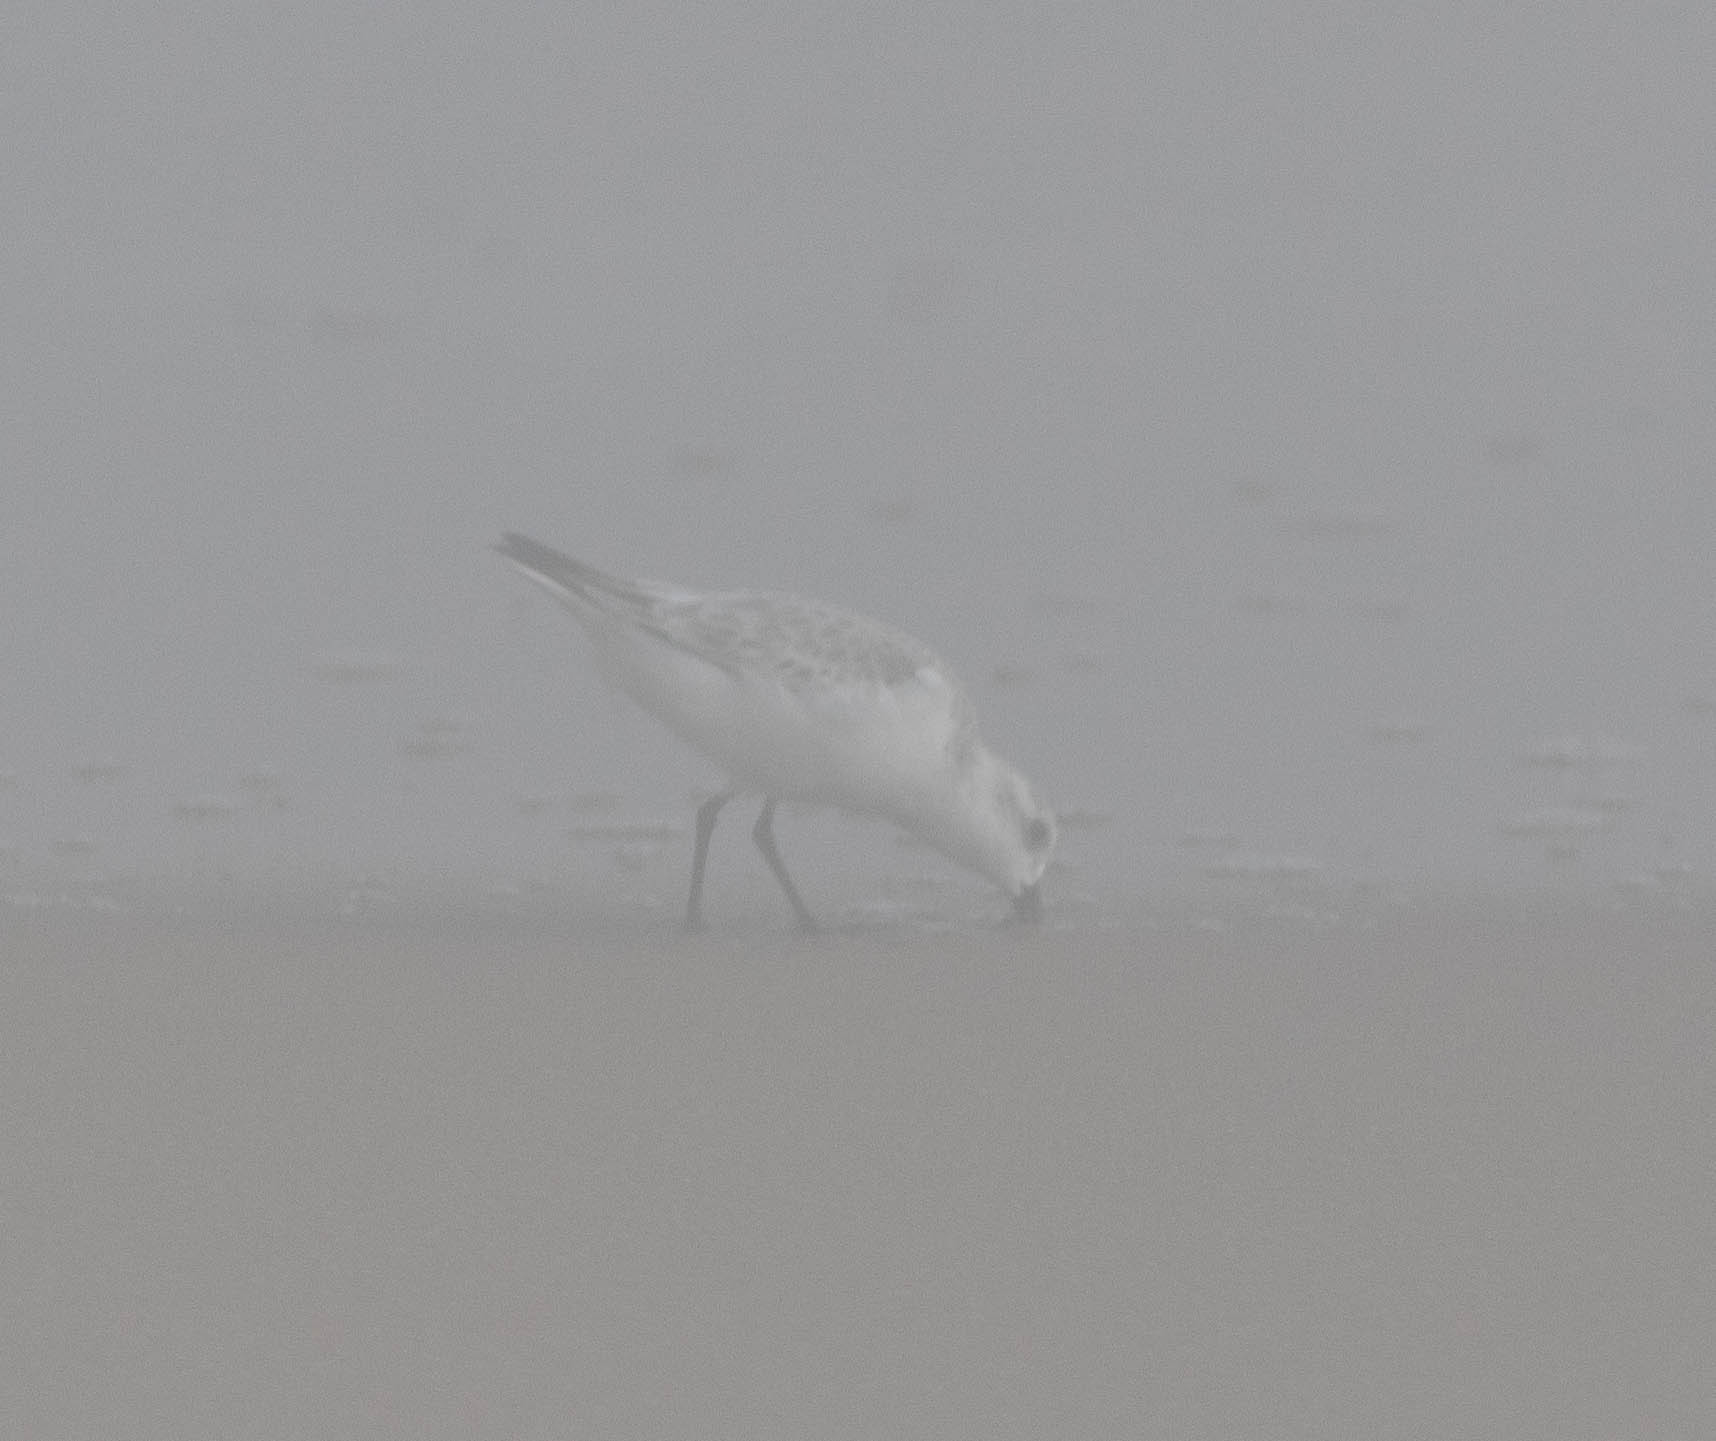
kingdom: Animalia
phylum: Chordata
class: Aves
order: Charadriiformes
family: Scolopacidae
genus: Calidris
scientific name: Calidris alba
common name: Sanderling
